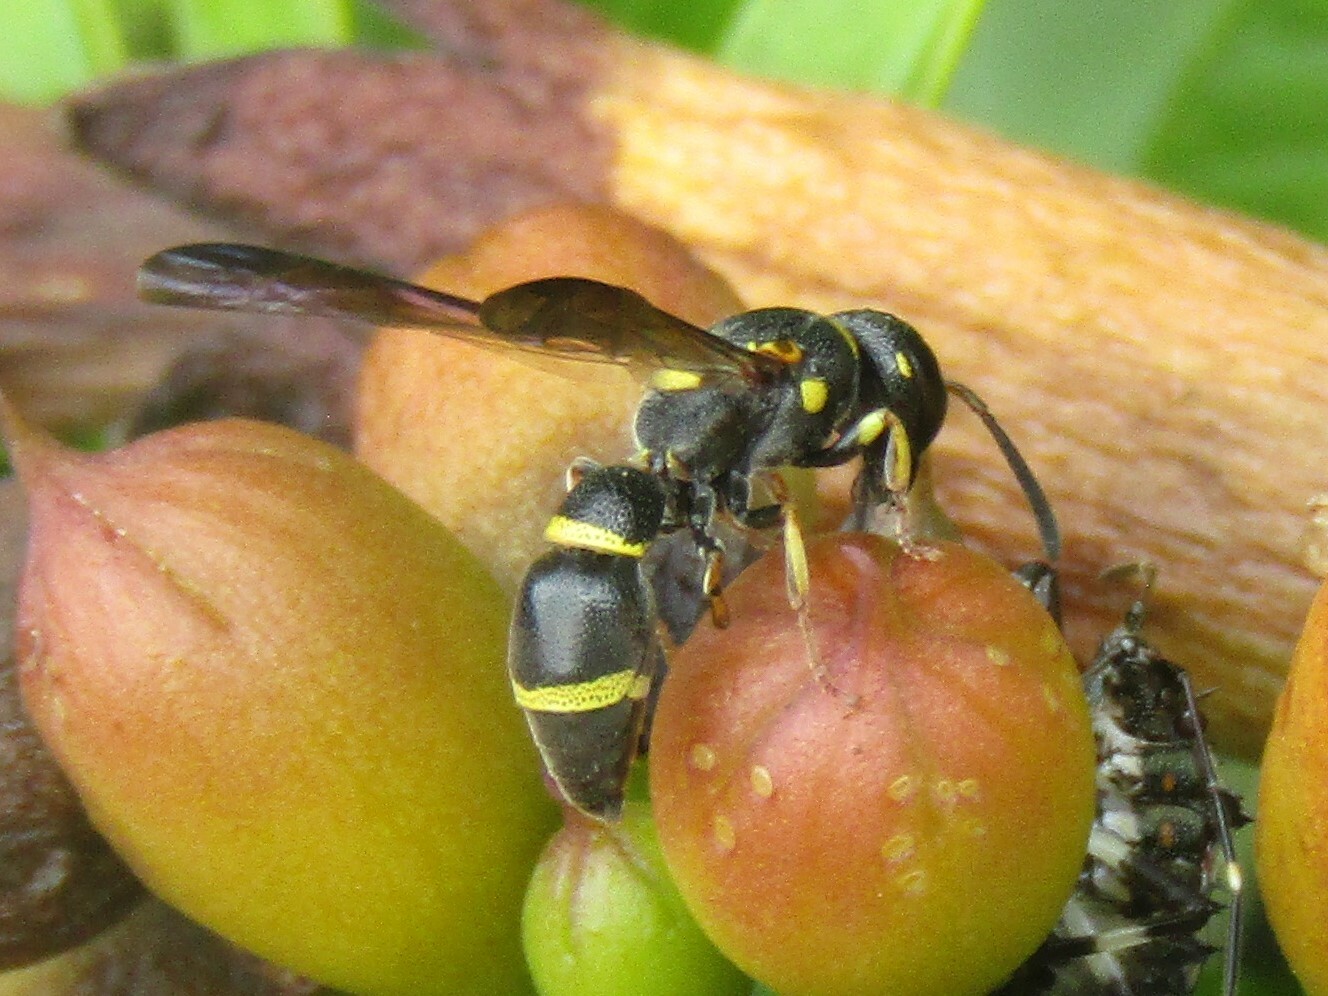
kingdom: Animalia
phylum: Arthropoda
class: Insecta
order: Hymenoptera
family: Eumenidae
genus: Parancistrocerus
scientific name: Parancistrocerus perennis
